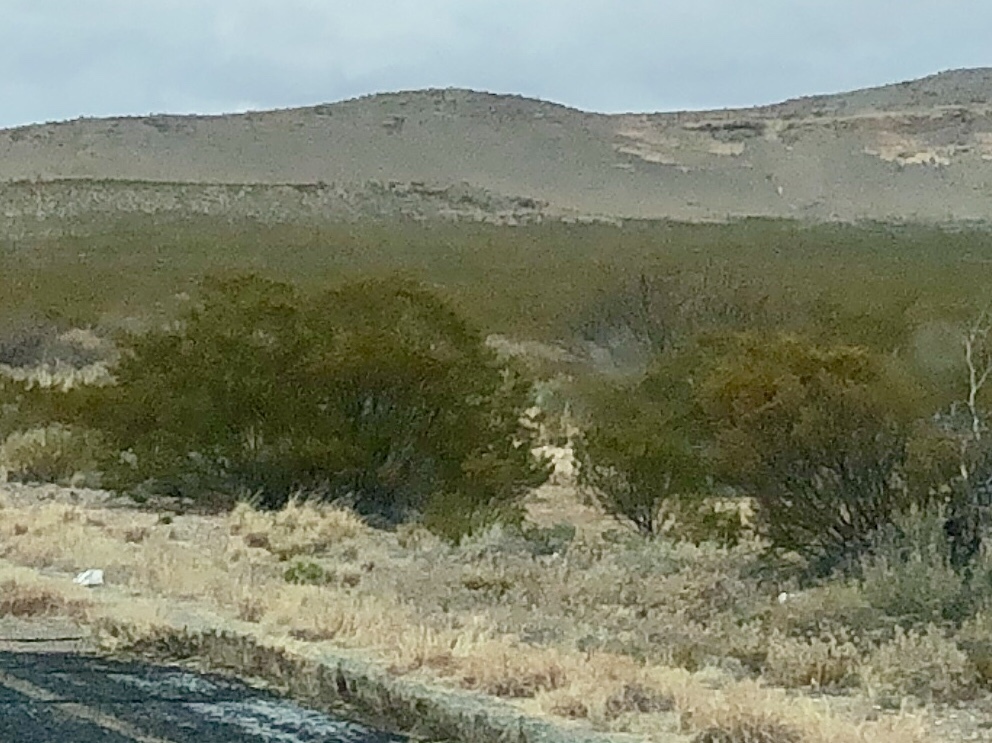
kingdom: Plantae
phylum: Tracheophyta
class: Magnoliopsida
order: Zygophyllales
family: Zygophyllaceae
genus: Larrea
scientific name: Larrea tridentata
